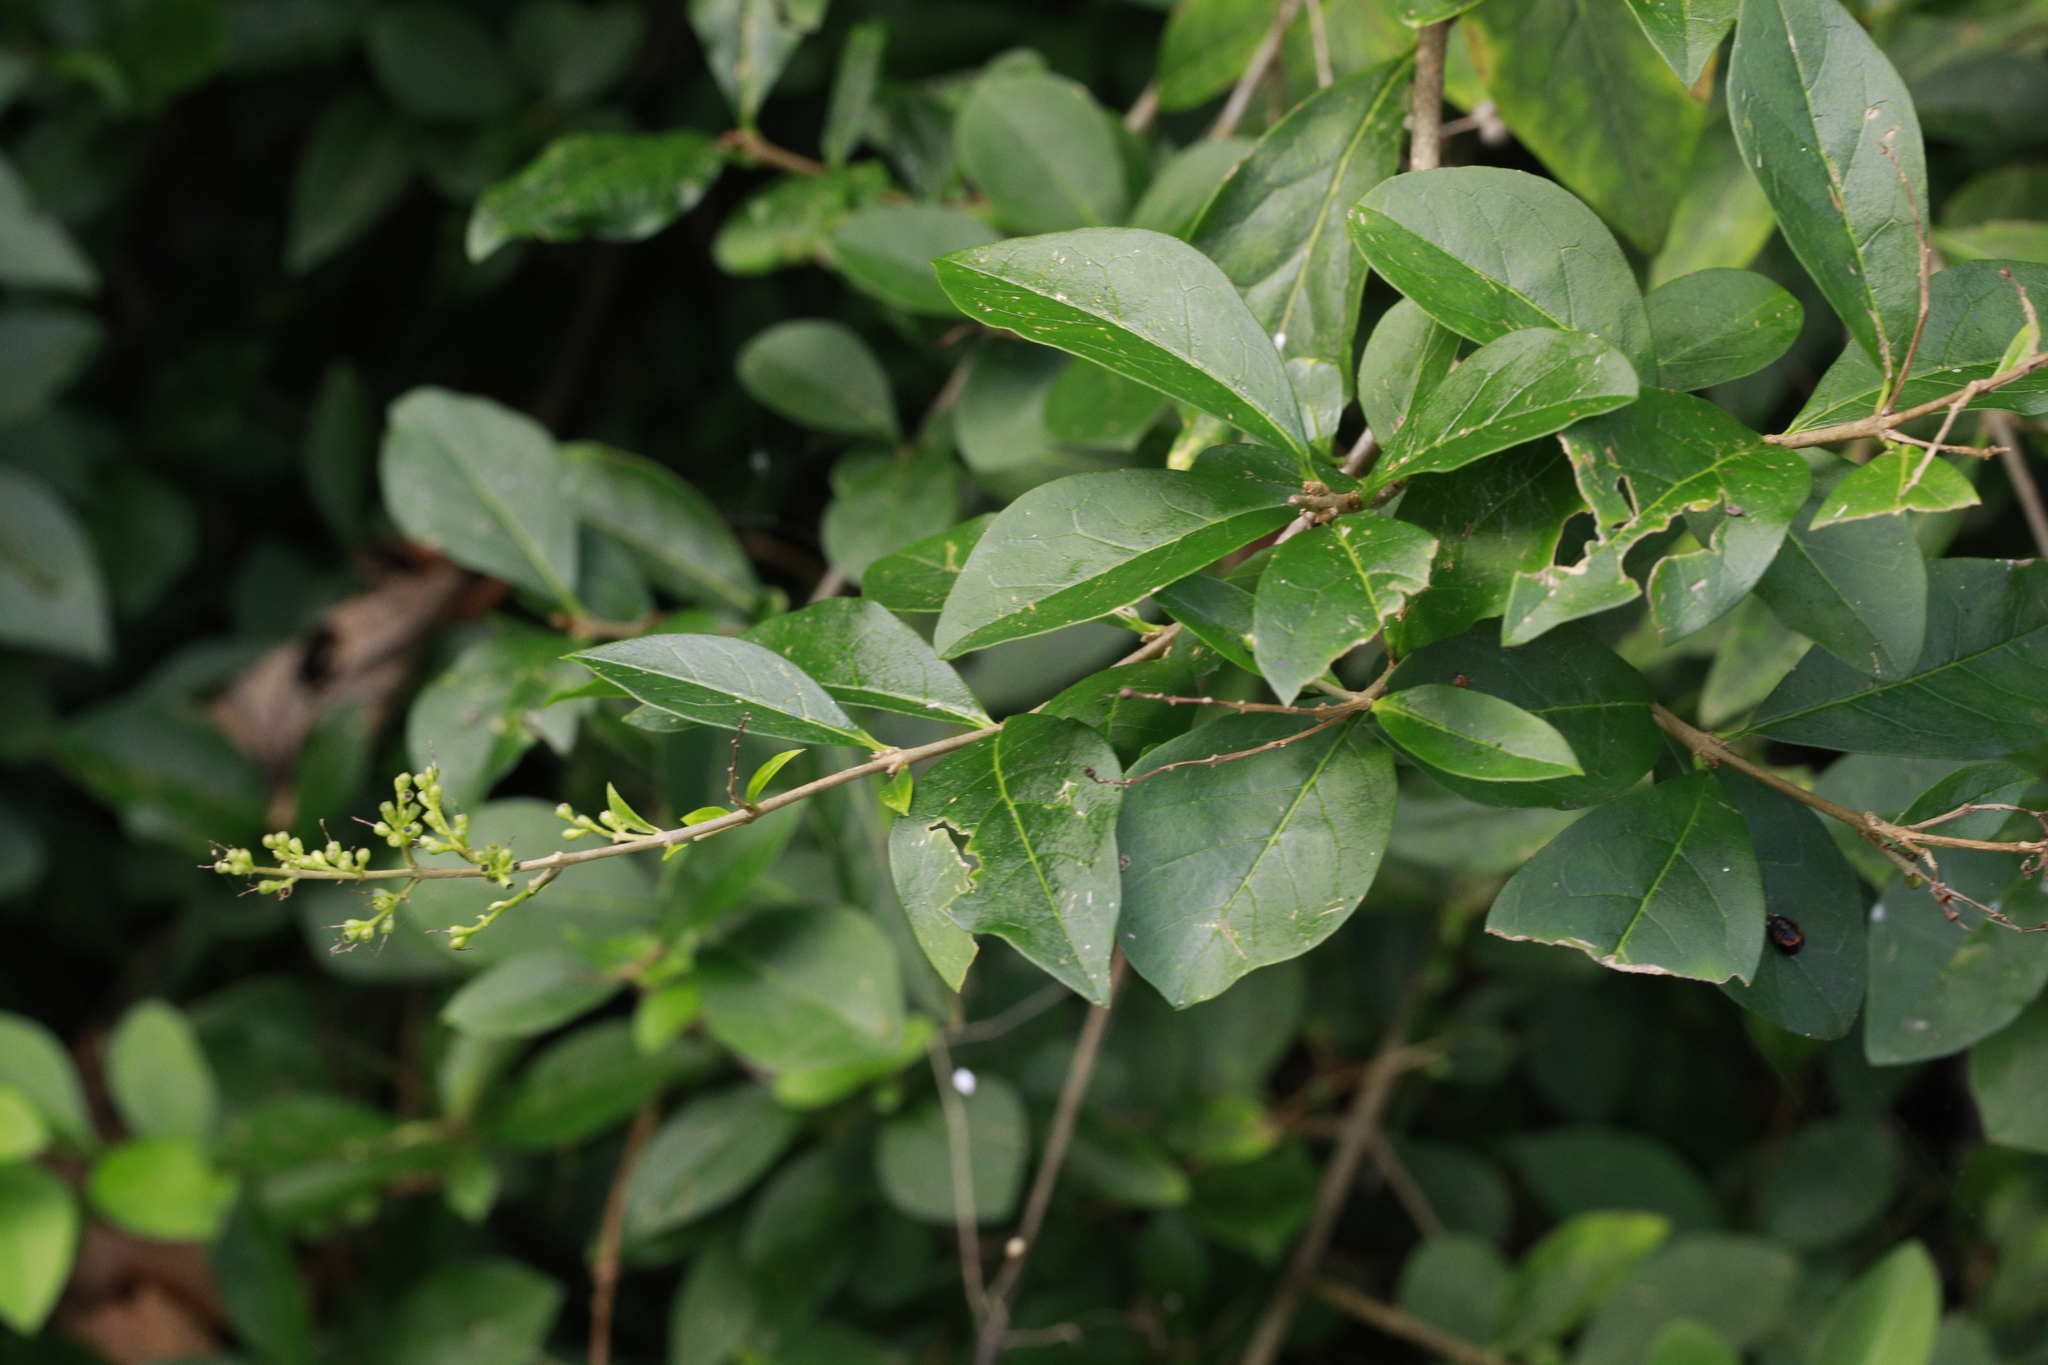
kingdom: Plantae
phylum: Tracheophyta
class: Magnoliopsida
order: Lamiales
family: Oleaceae
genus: Ligustrum
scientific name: Ligustrum ovalifolium
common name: California privet
